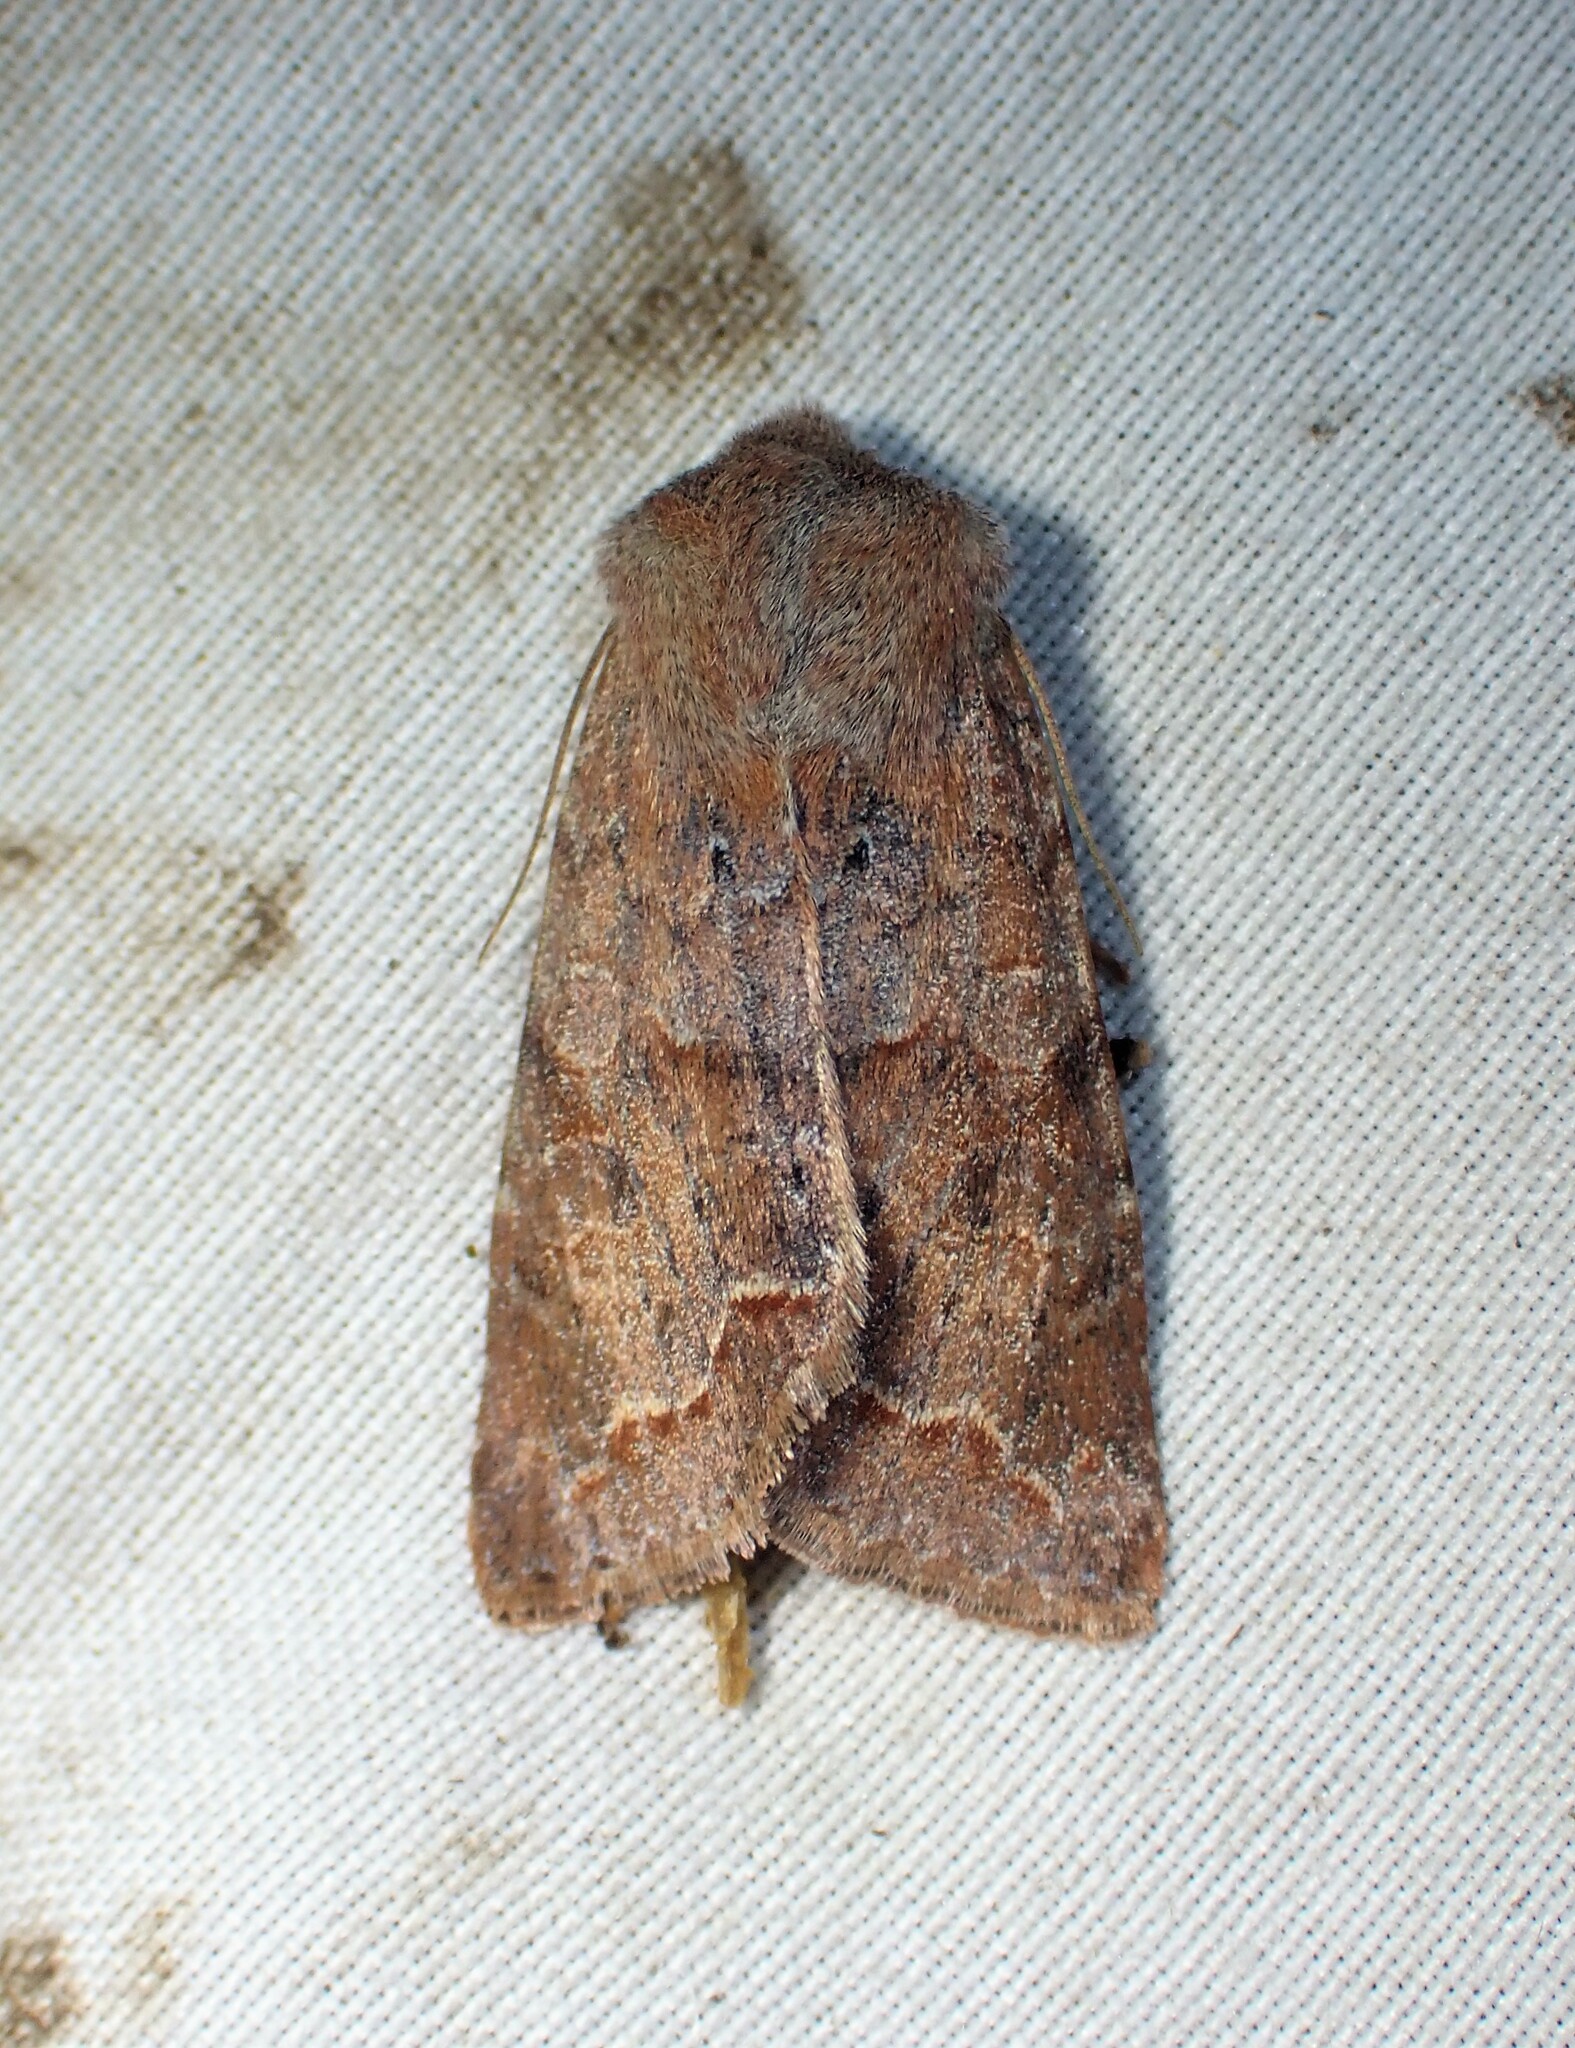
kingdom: Animalia
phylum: Arthropoda
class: Insecta
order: Lepidoptera
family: Noctuidae
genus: Orthosia
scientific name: Orthosia revicta
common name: Rusty whitesided caterpillar
